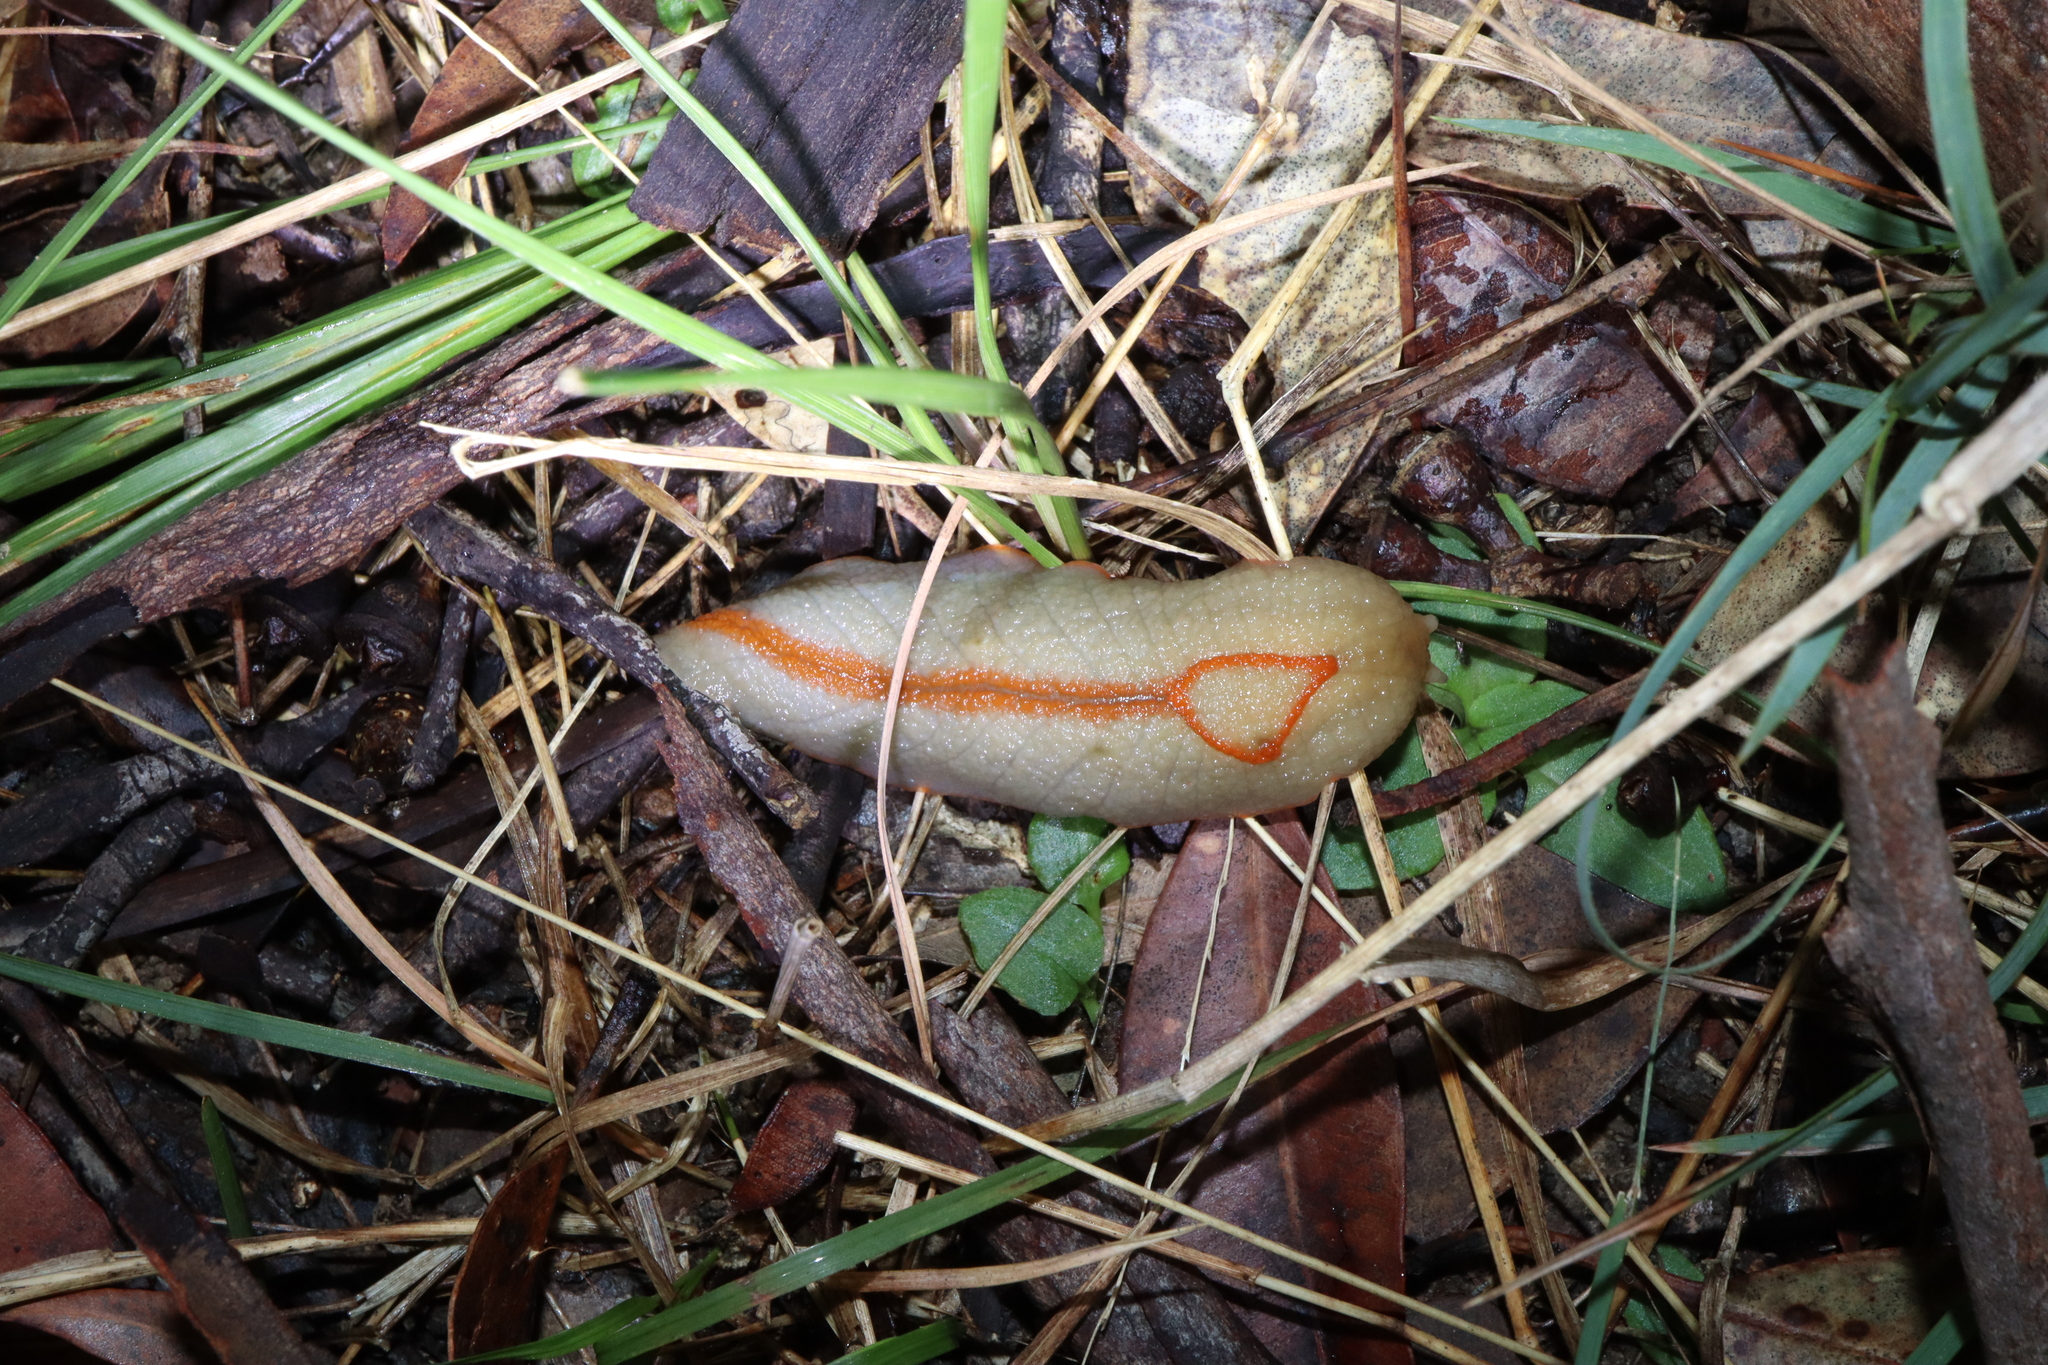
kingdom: Animalia
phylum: Mollusca
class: Gastropoda
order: Stylommatophora
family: Athoracophoridae
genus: Triboniophorus
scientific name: Triboniophorus graeffei
